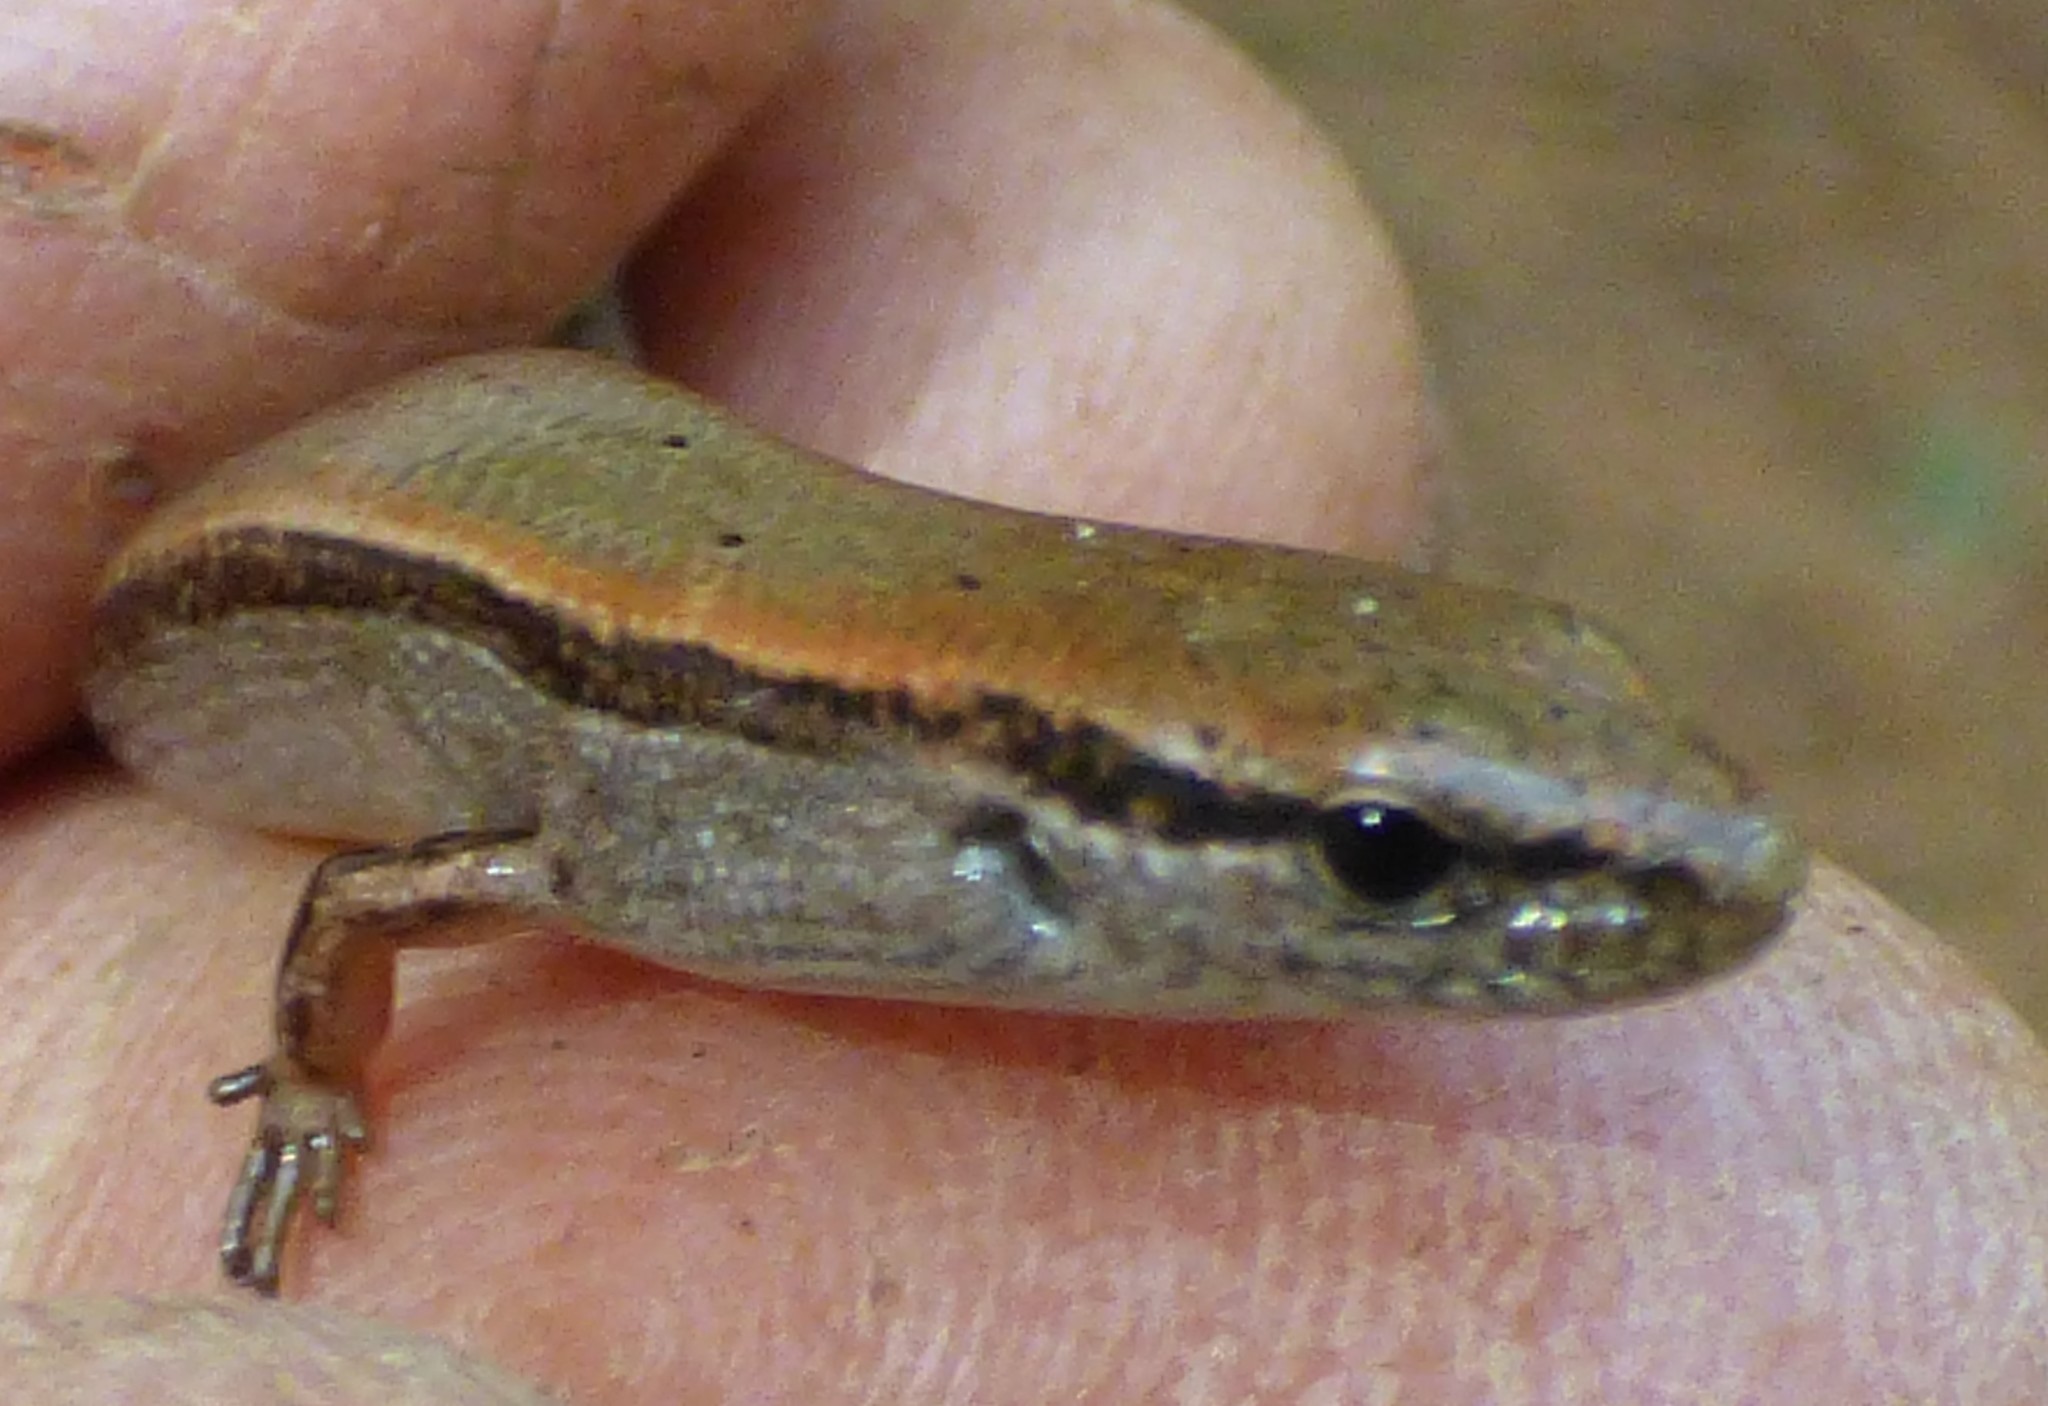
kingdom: Animalia
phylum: Chordata
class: Squamata
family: Scincidae
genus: Scincella
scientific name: Scincella lateralis
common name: Ground skink
